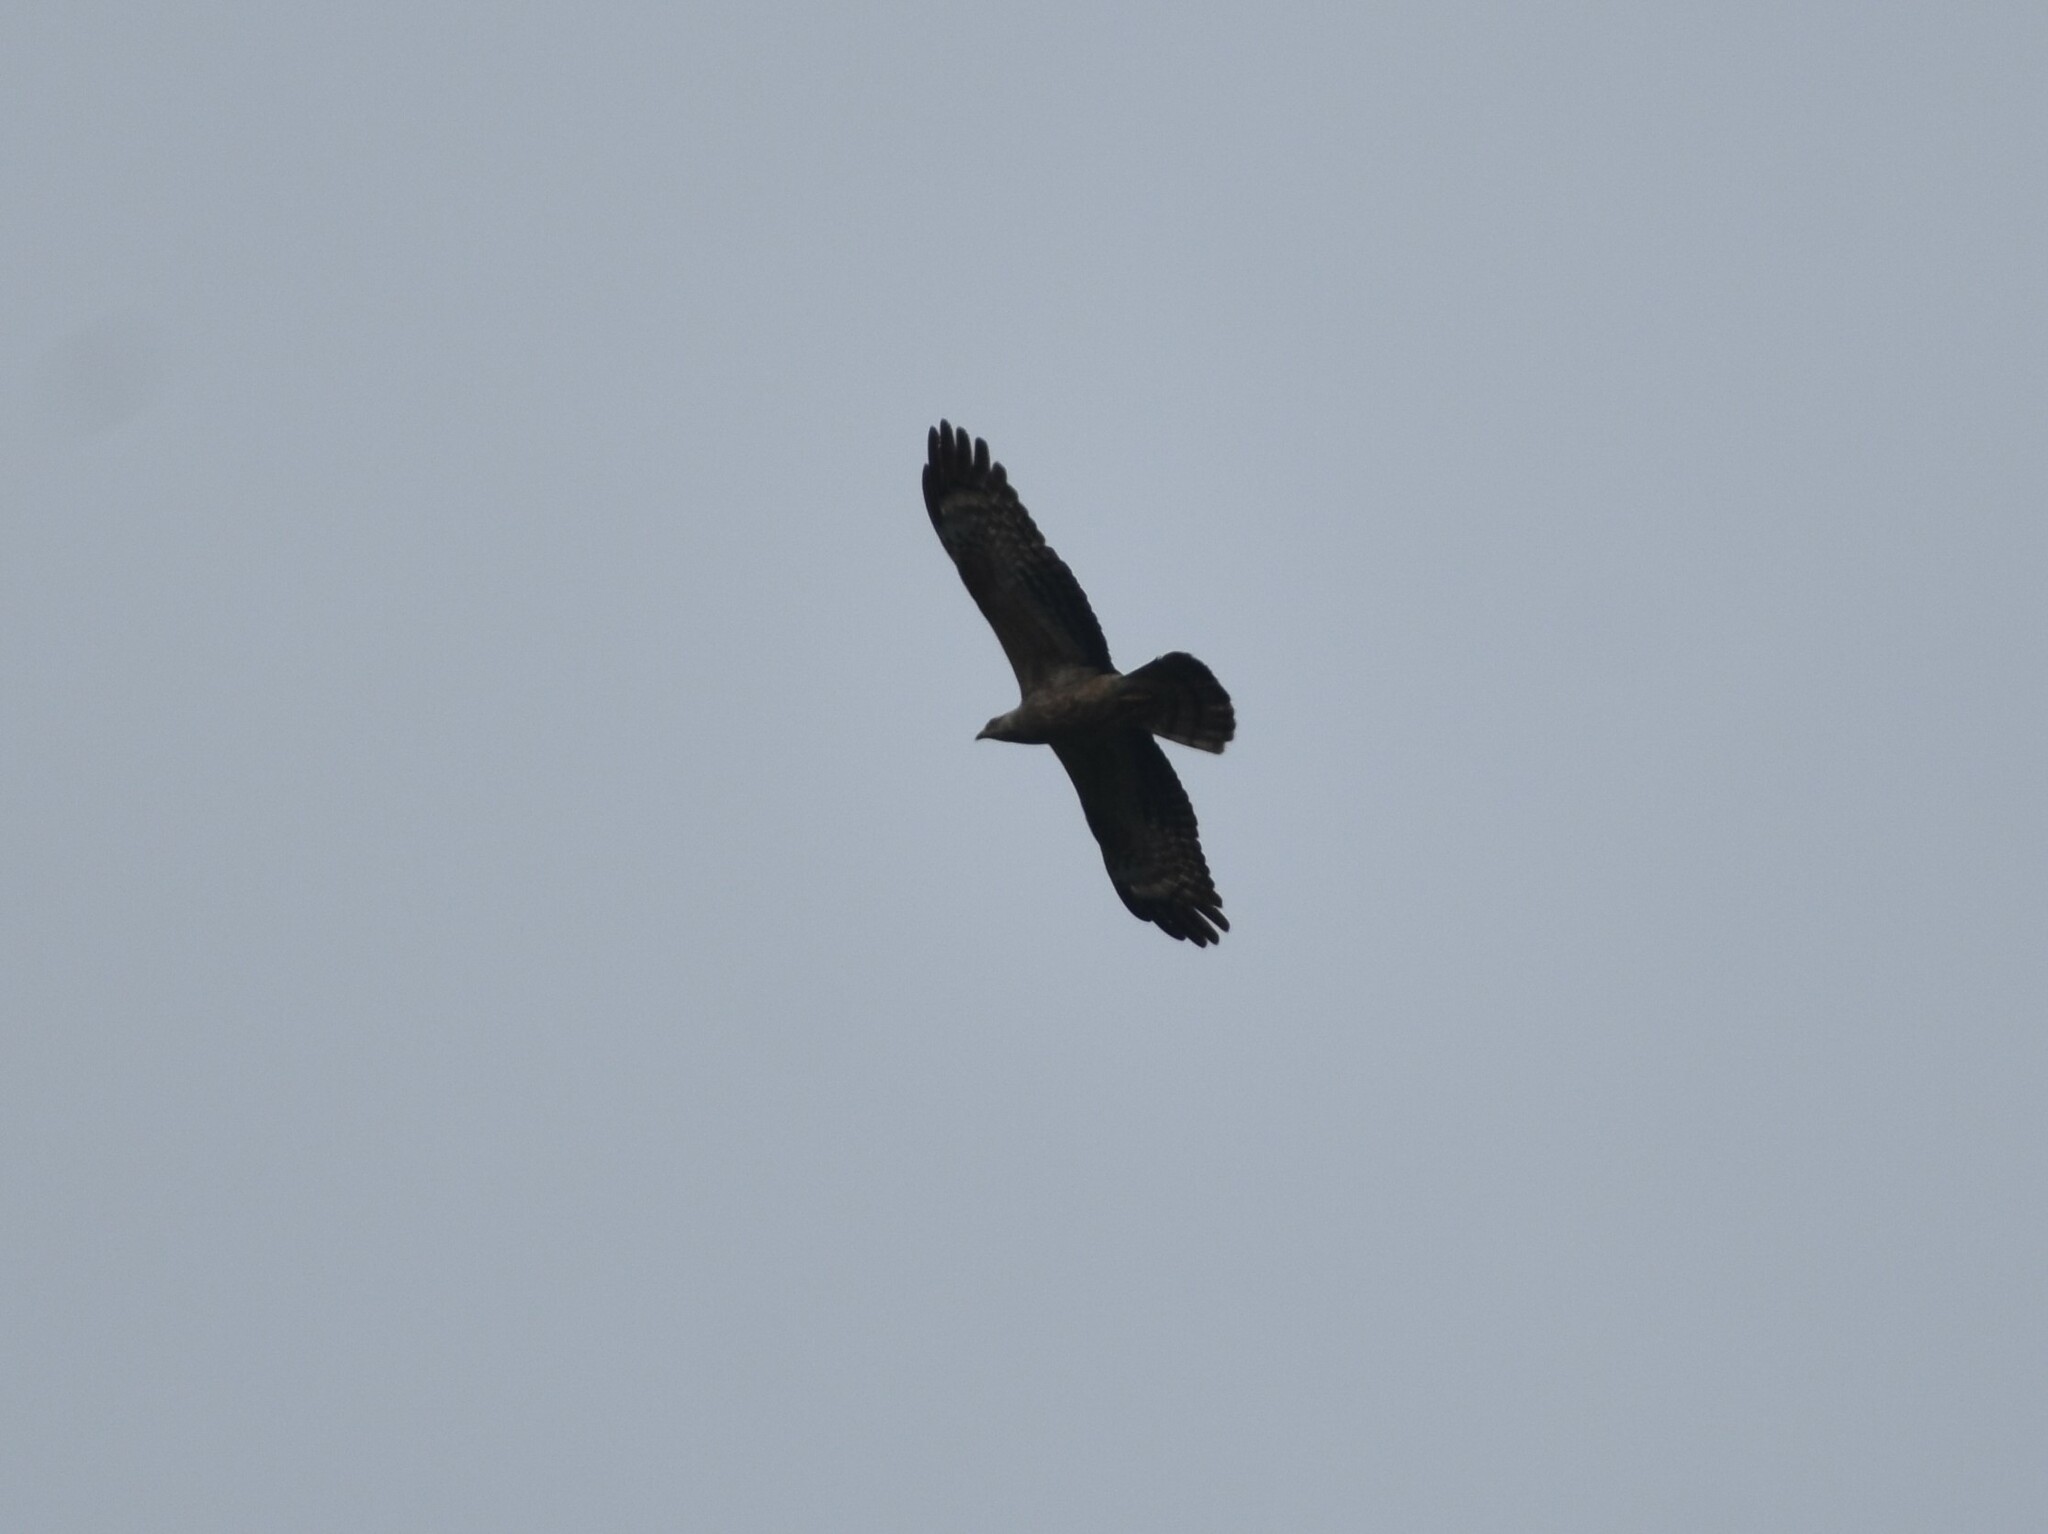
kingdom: Animalia
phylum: Chordata
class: Aves
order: Accipitriformes
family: Accipitridae
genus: Pernis
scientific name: Pernis apivorus
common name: European honey buzzard
